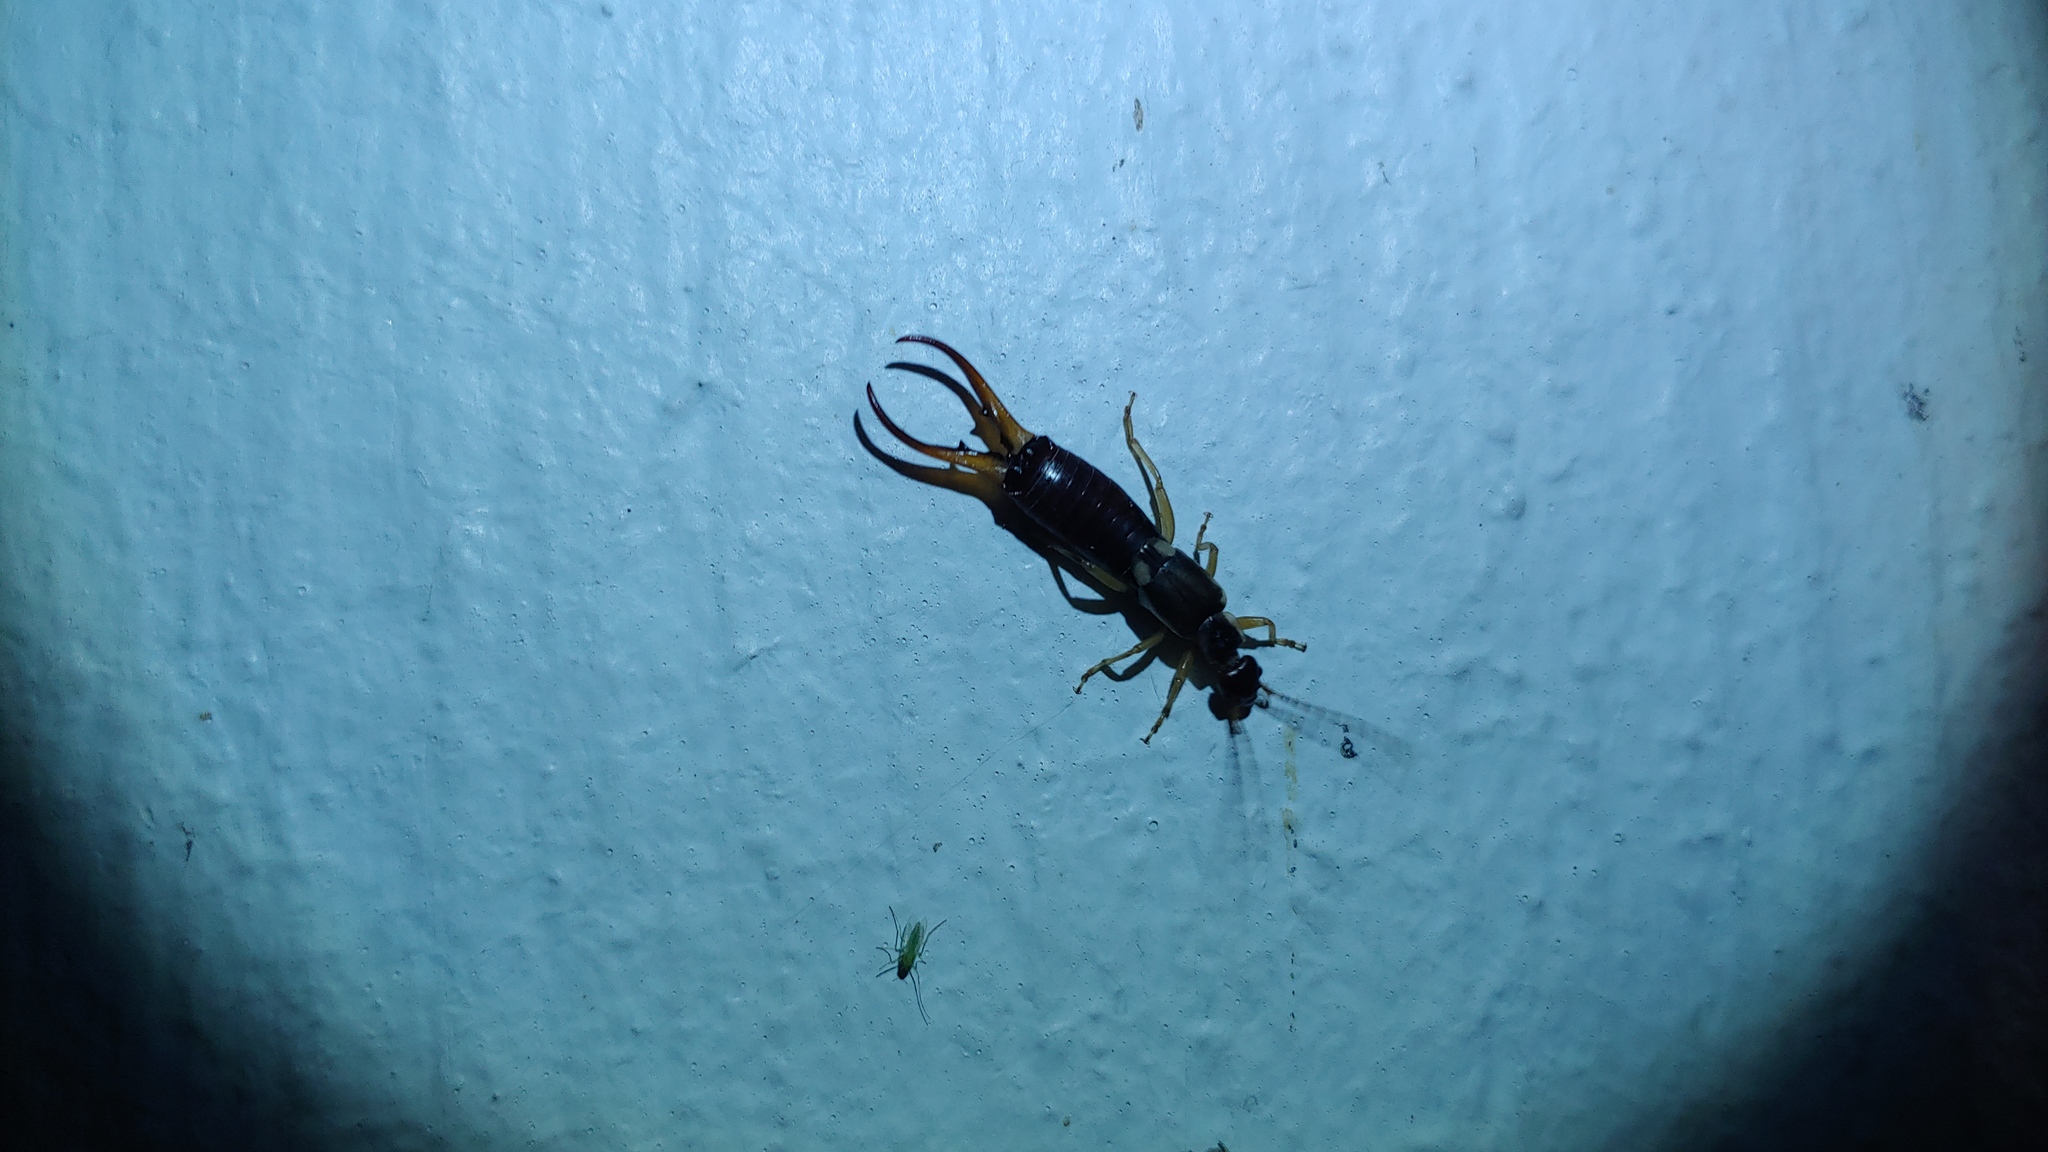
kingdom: Animalia
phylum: Arthropoda
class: Insecta
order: Dermaptera
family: Forficulidae
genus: Forficula
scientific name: Forficula
